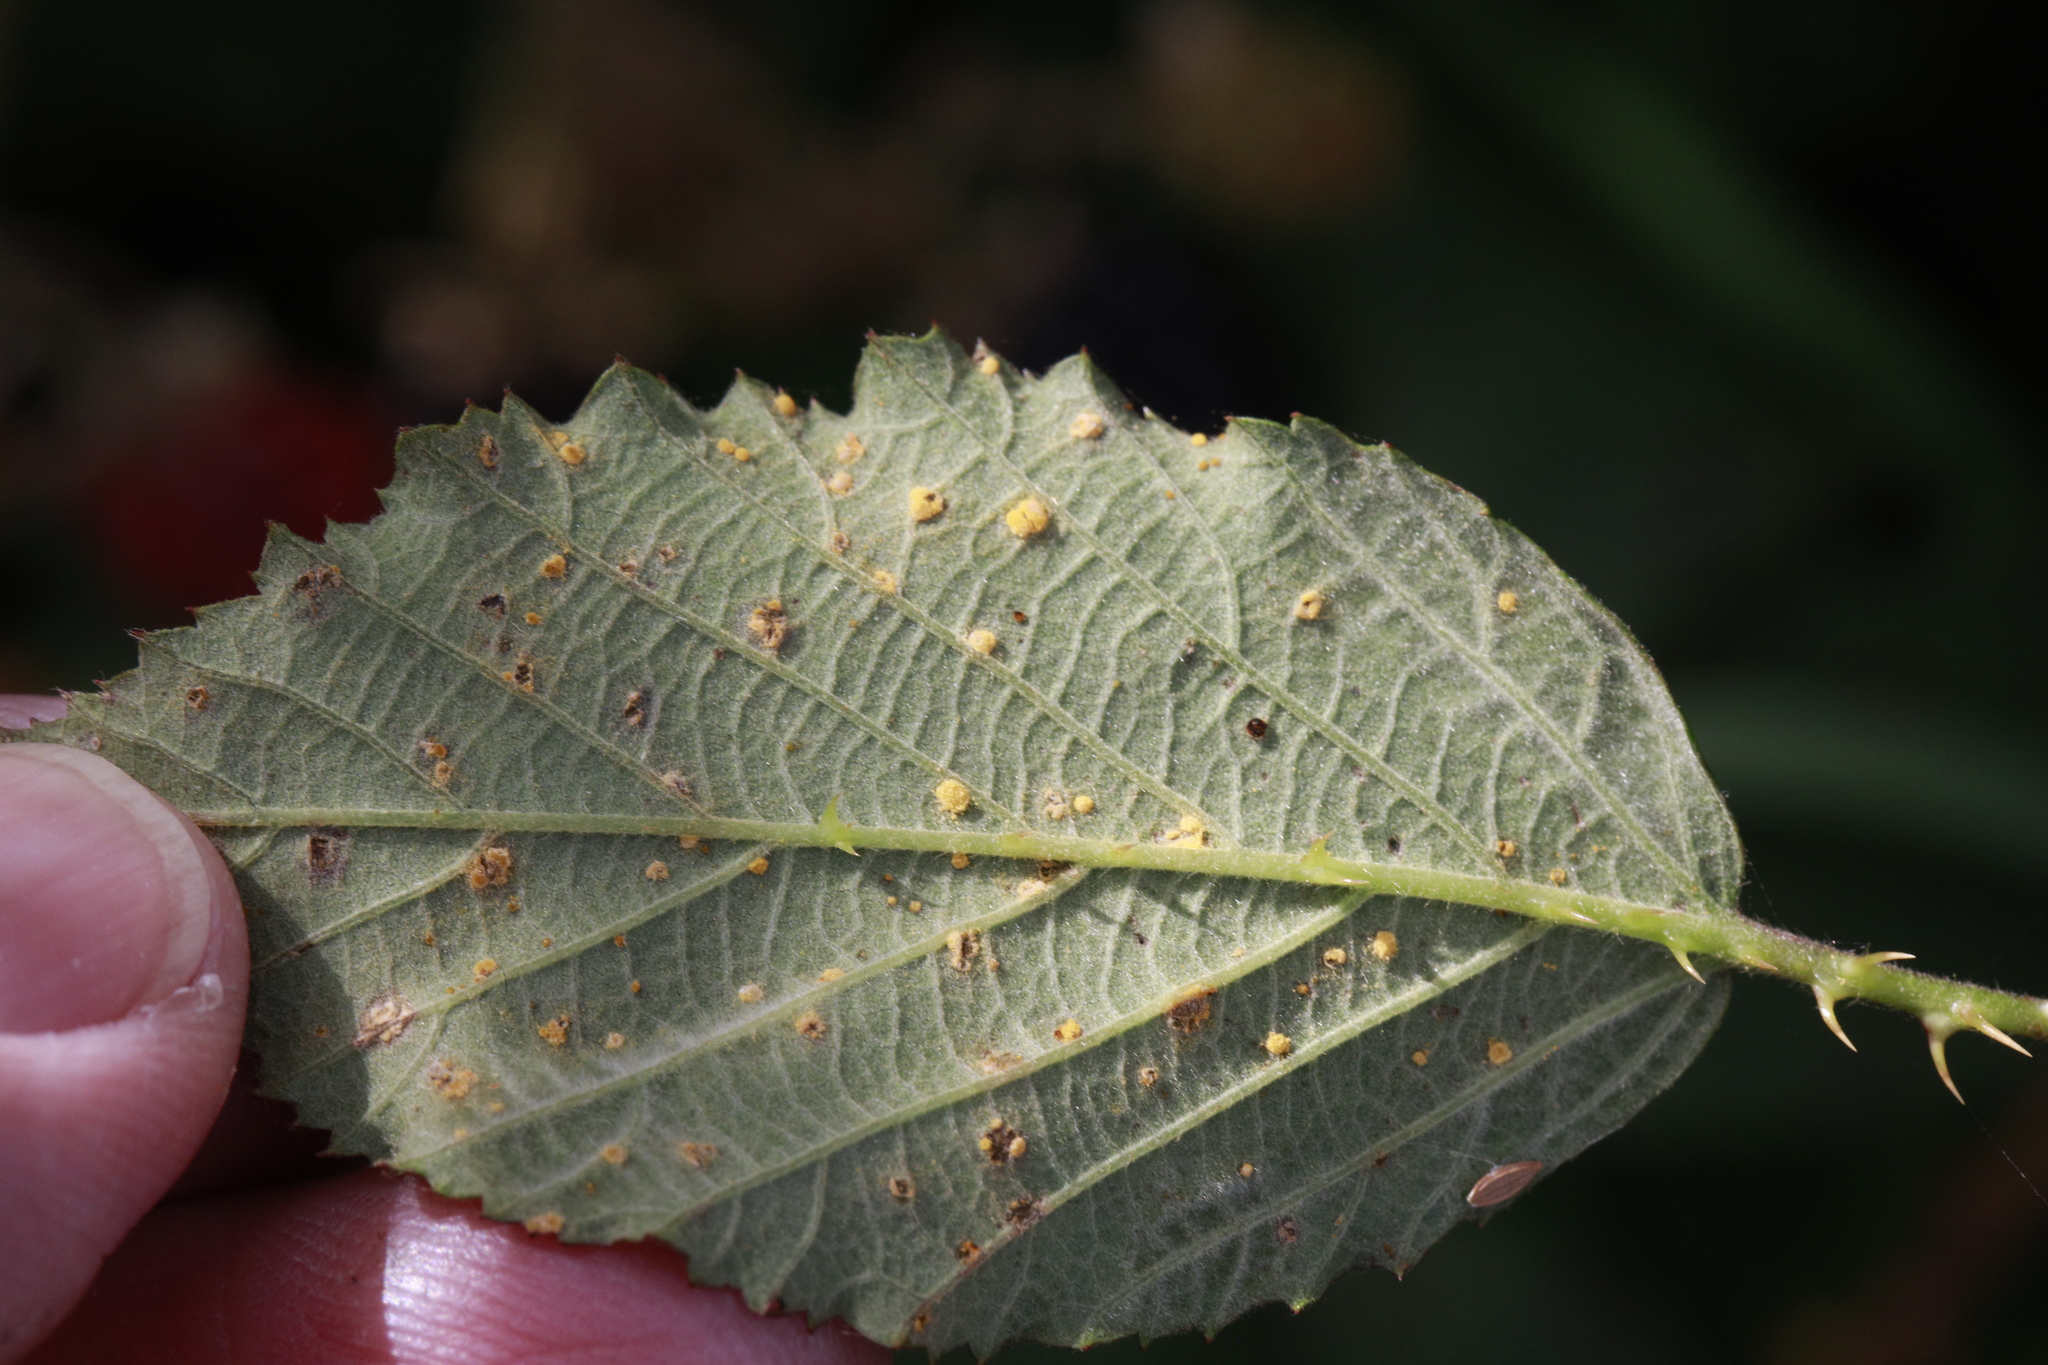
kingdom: Fungi
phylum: Basidiomycota
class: Pucciniomycetes
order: Pucciniales
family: Phragmidiaceae
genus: Phragmidium
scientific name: Phragmidium violaceum
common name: Violet bramble rust
